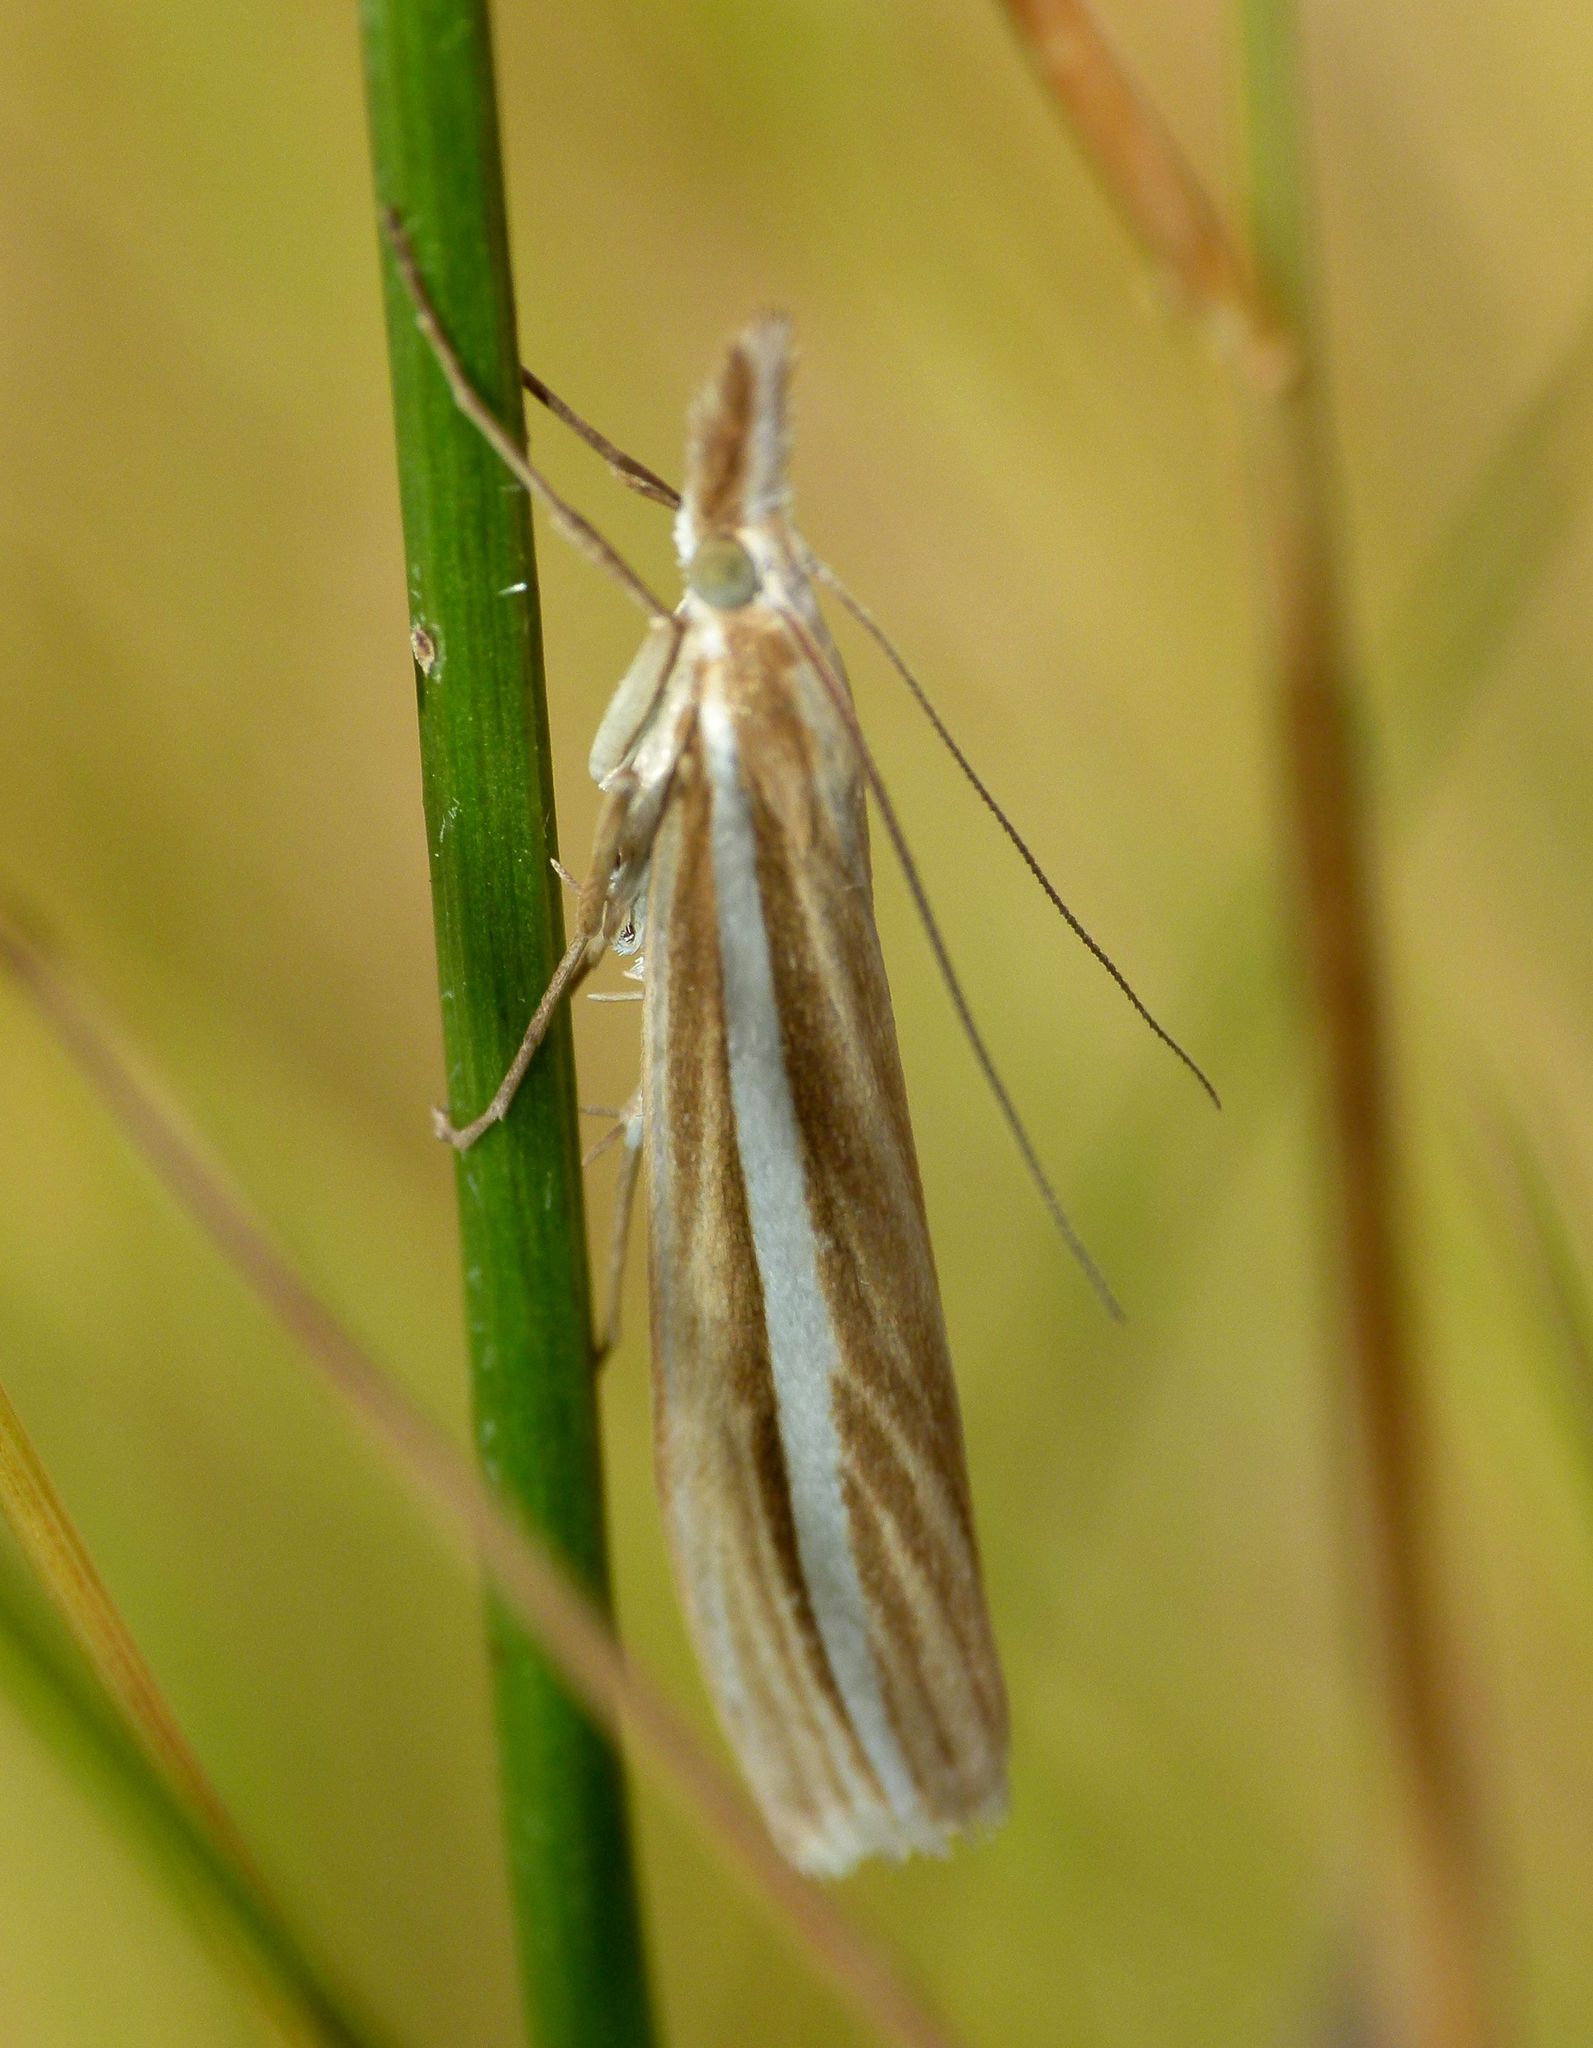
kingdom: Animalia
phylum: Arthropoda
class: Insecta
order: Lepidoptera
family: Crambidae
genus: Orocrambus
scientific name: Orocrambus lewisi
